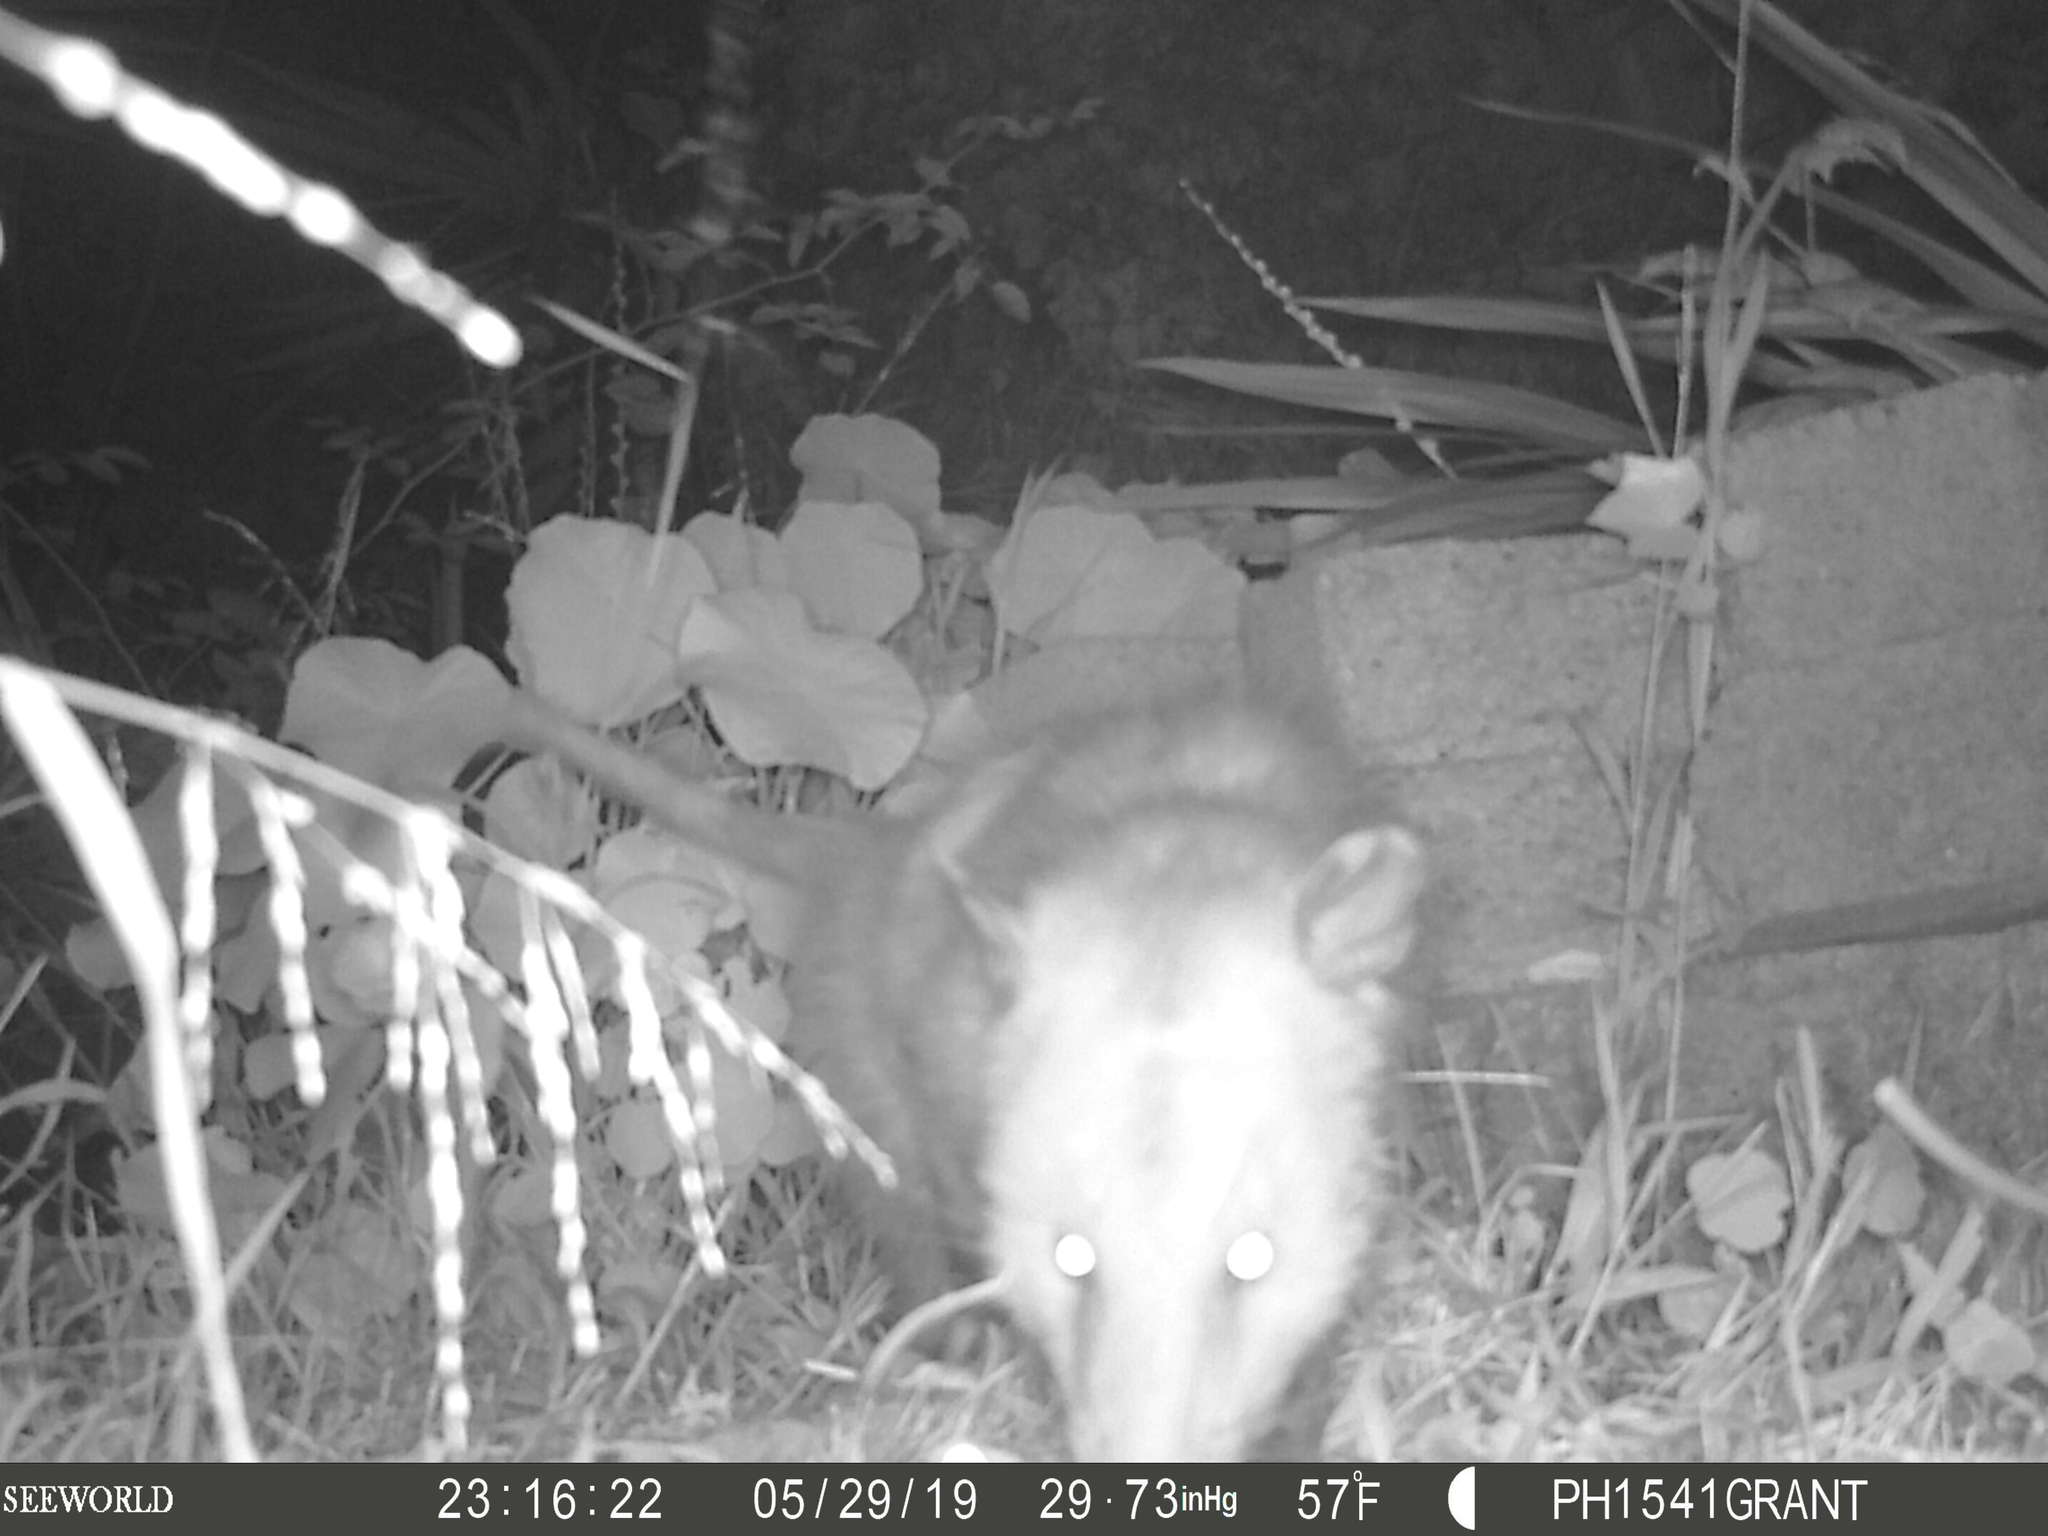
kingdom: Animalia
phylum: Chordata
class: Mammalia
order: Didelphimorphia
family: Didelphidae
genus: Didelphis
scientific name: Didelphis virginiana
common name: Virginia opossum
